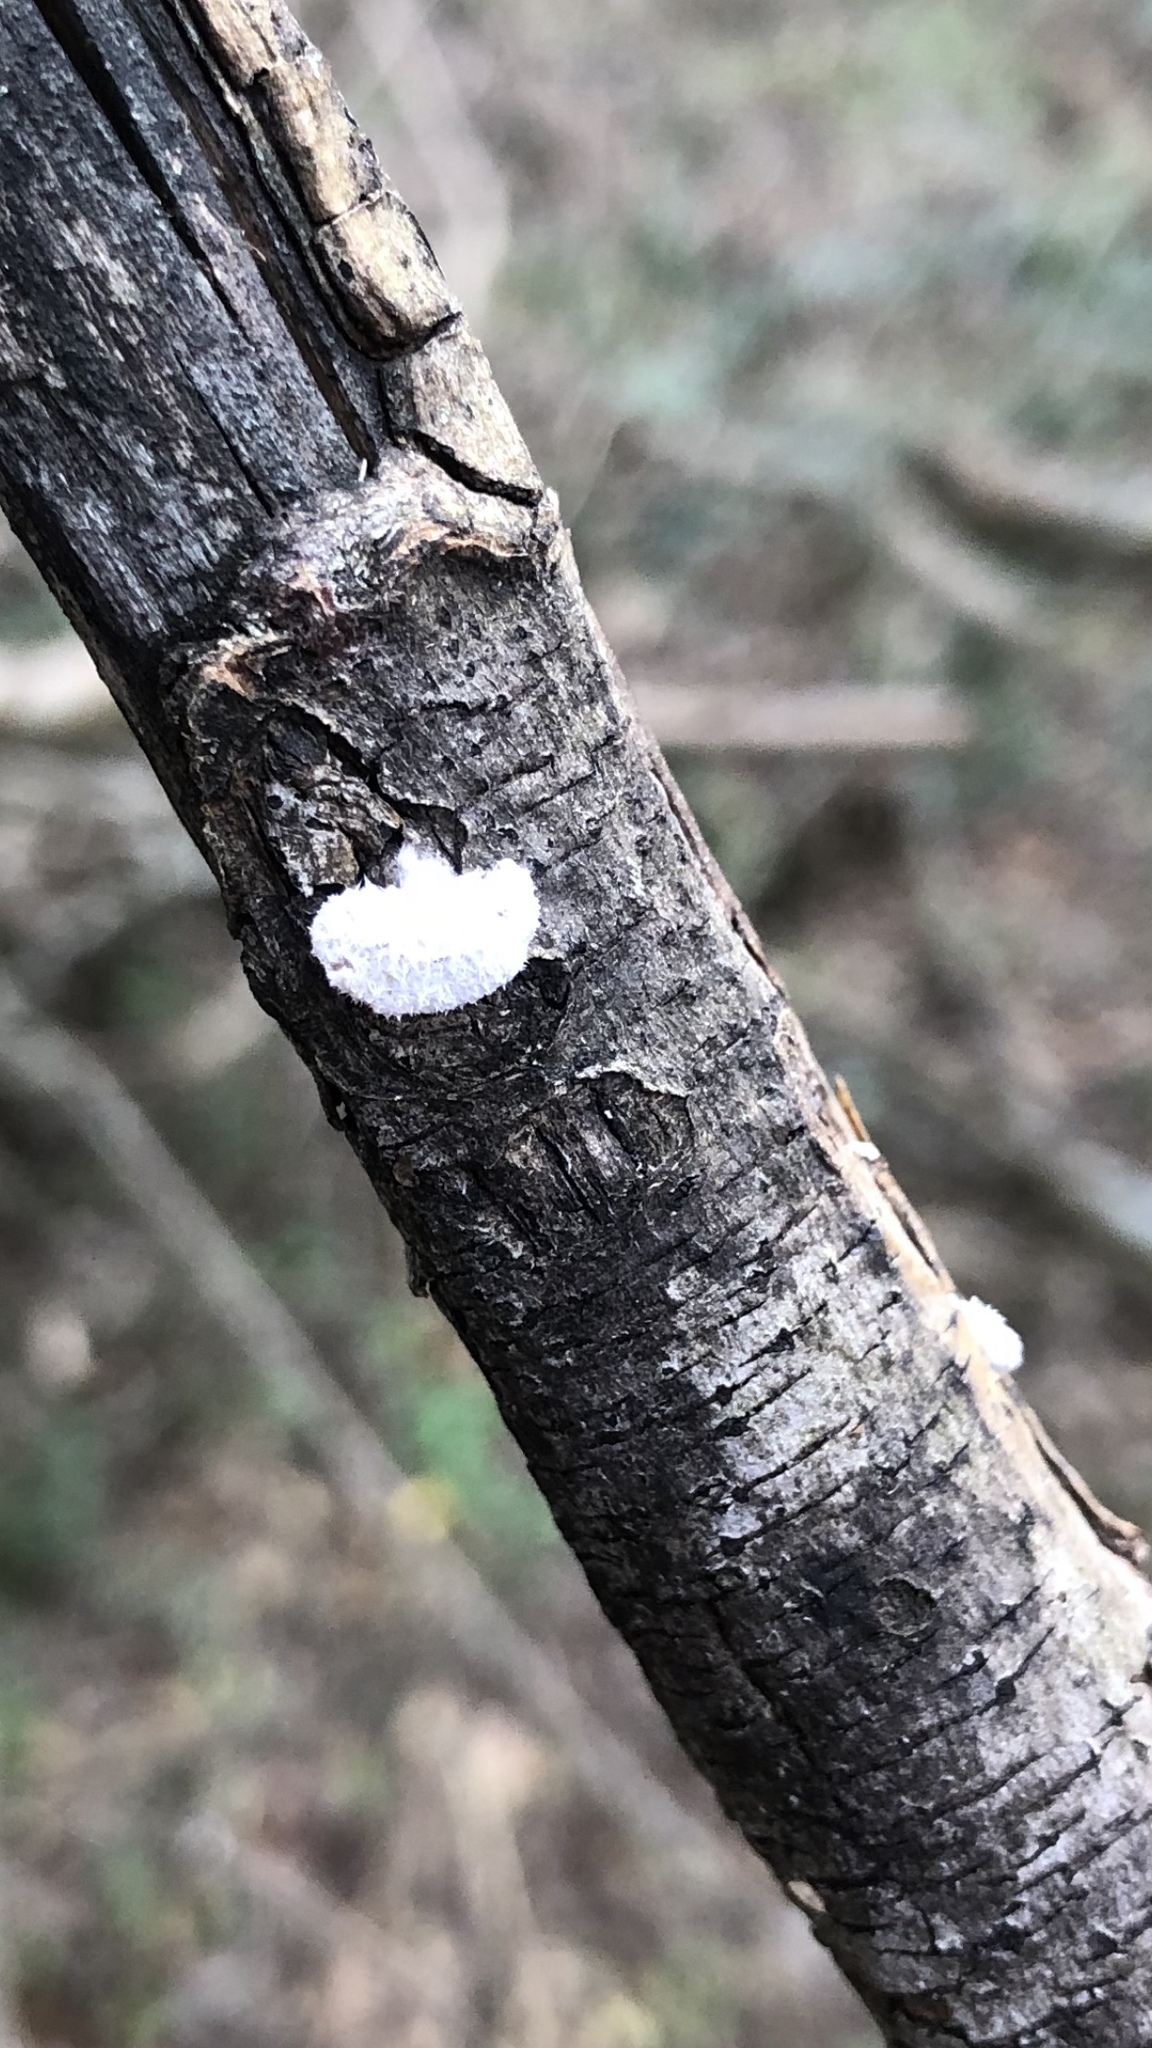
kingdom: Fungi
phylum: Basidiomycota
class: Agaricomycetes
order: Agaricales
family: Schizophyllaceae
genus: Schizophyllum
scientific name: Schizophyllum commune
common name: Common porecrust
